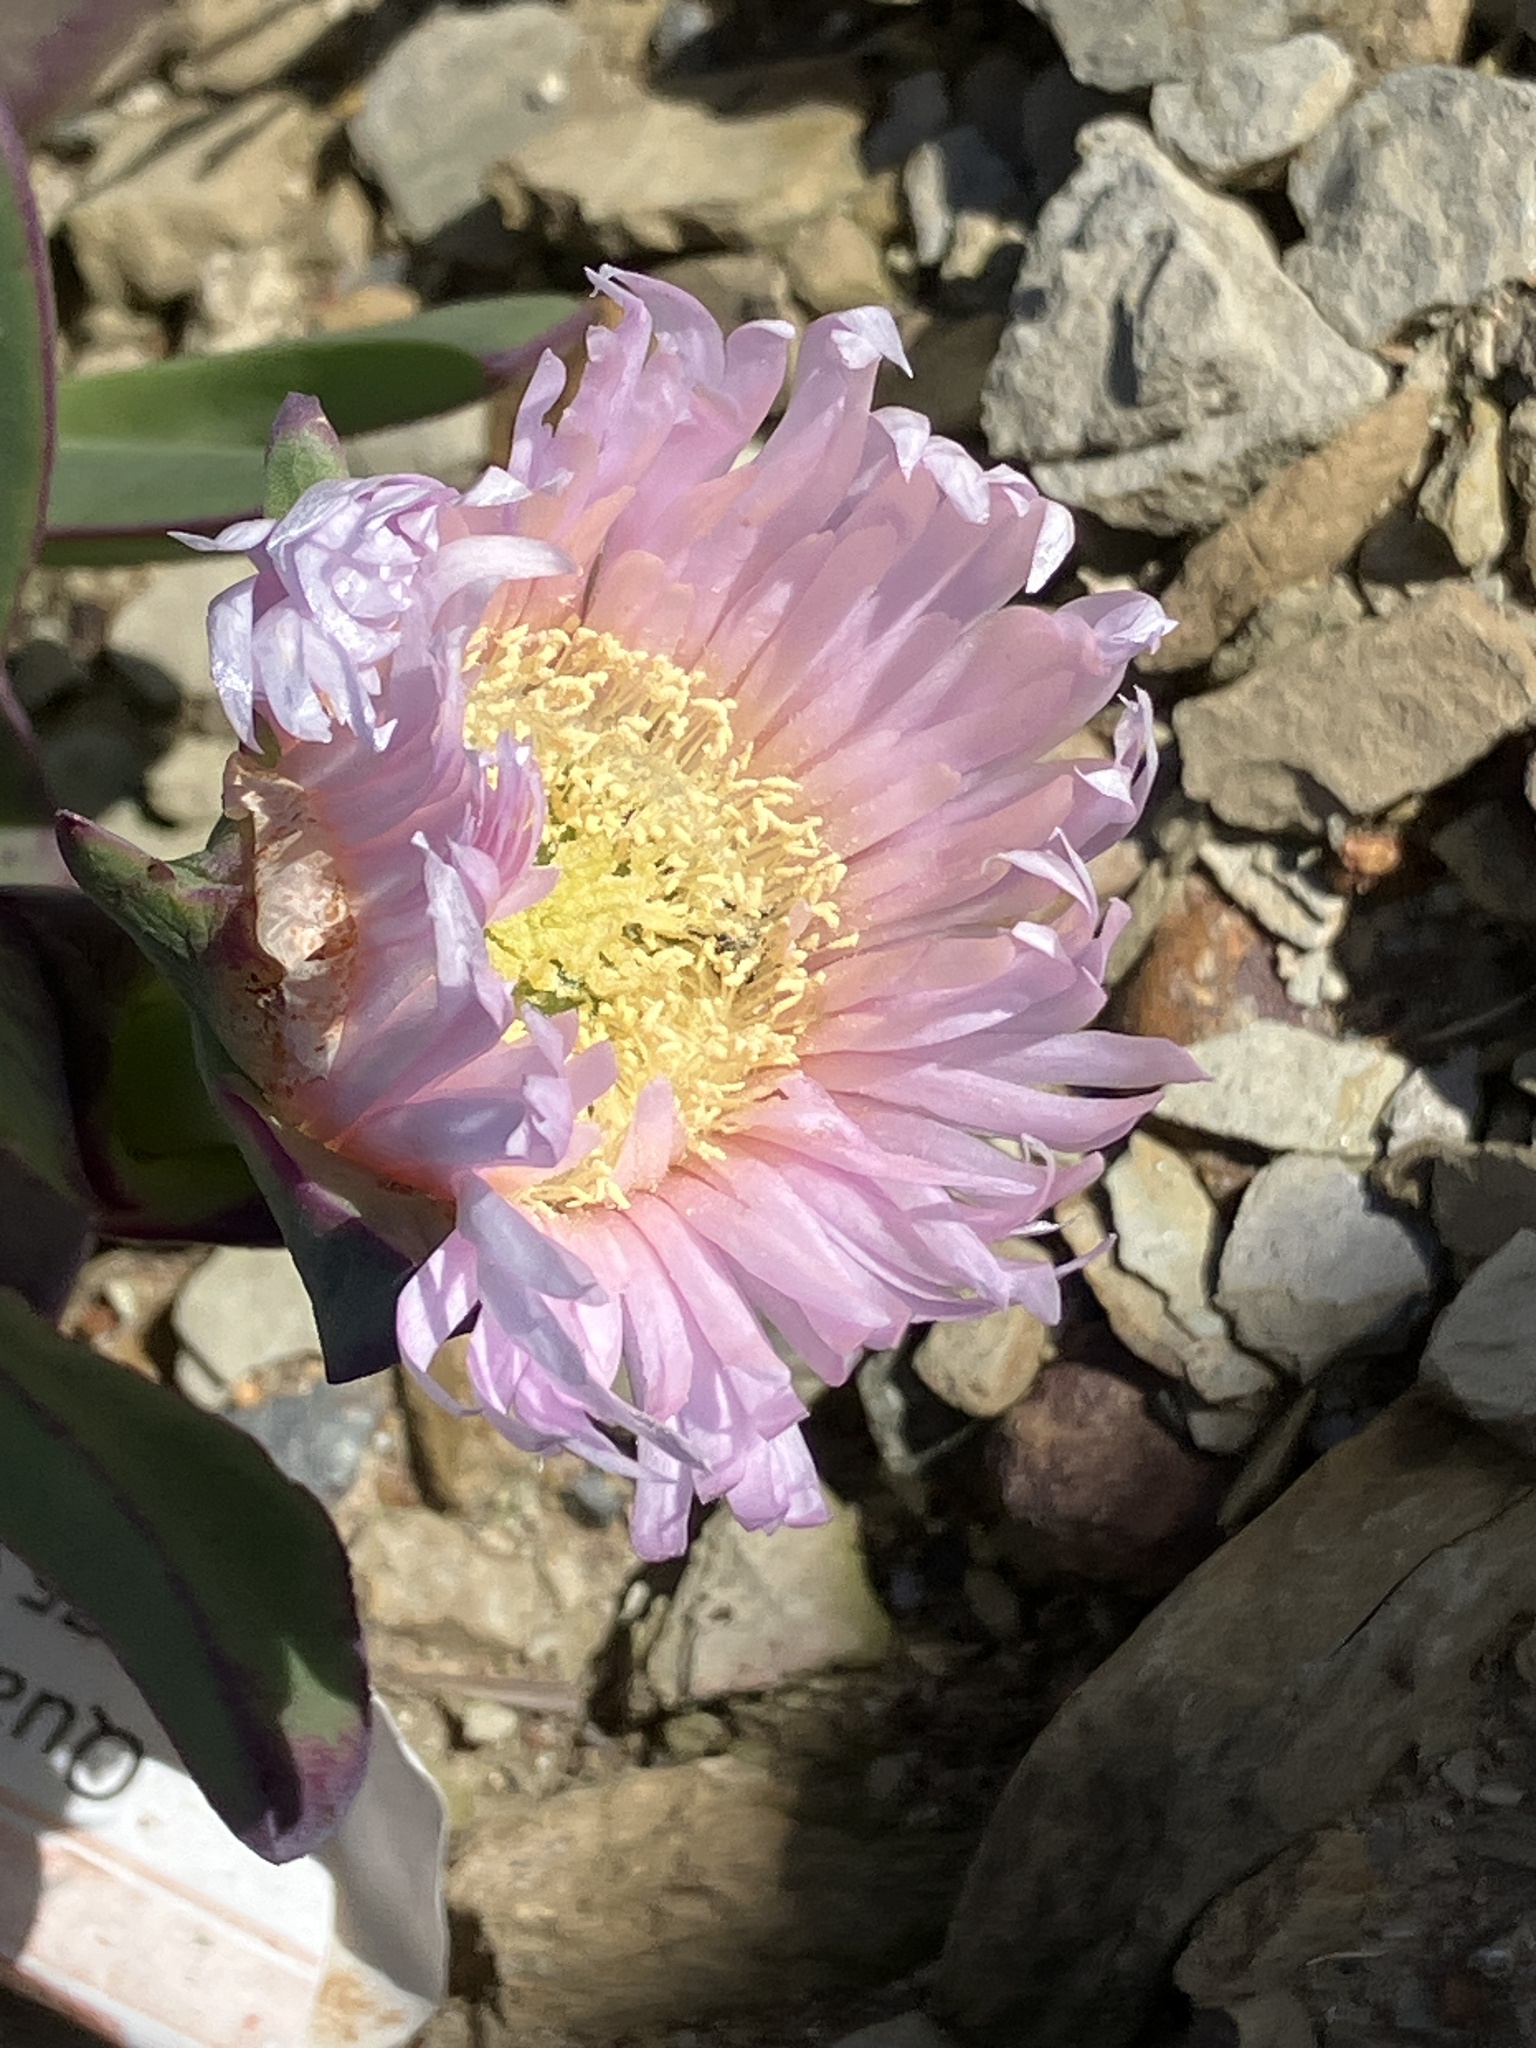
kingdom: Plantae
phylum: Tracheophyta
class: Magnoliopsida
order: Caryophyllales
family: Aizoaceae
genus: Carpobrotus
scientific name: Carpobrotus mellei
